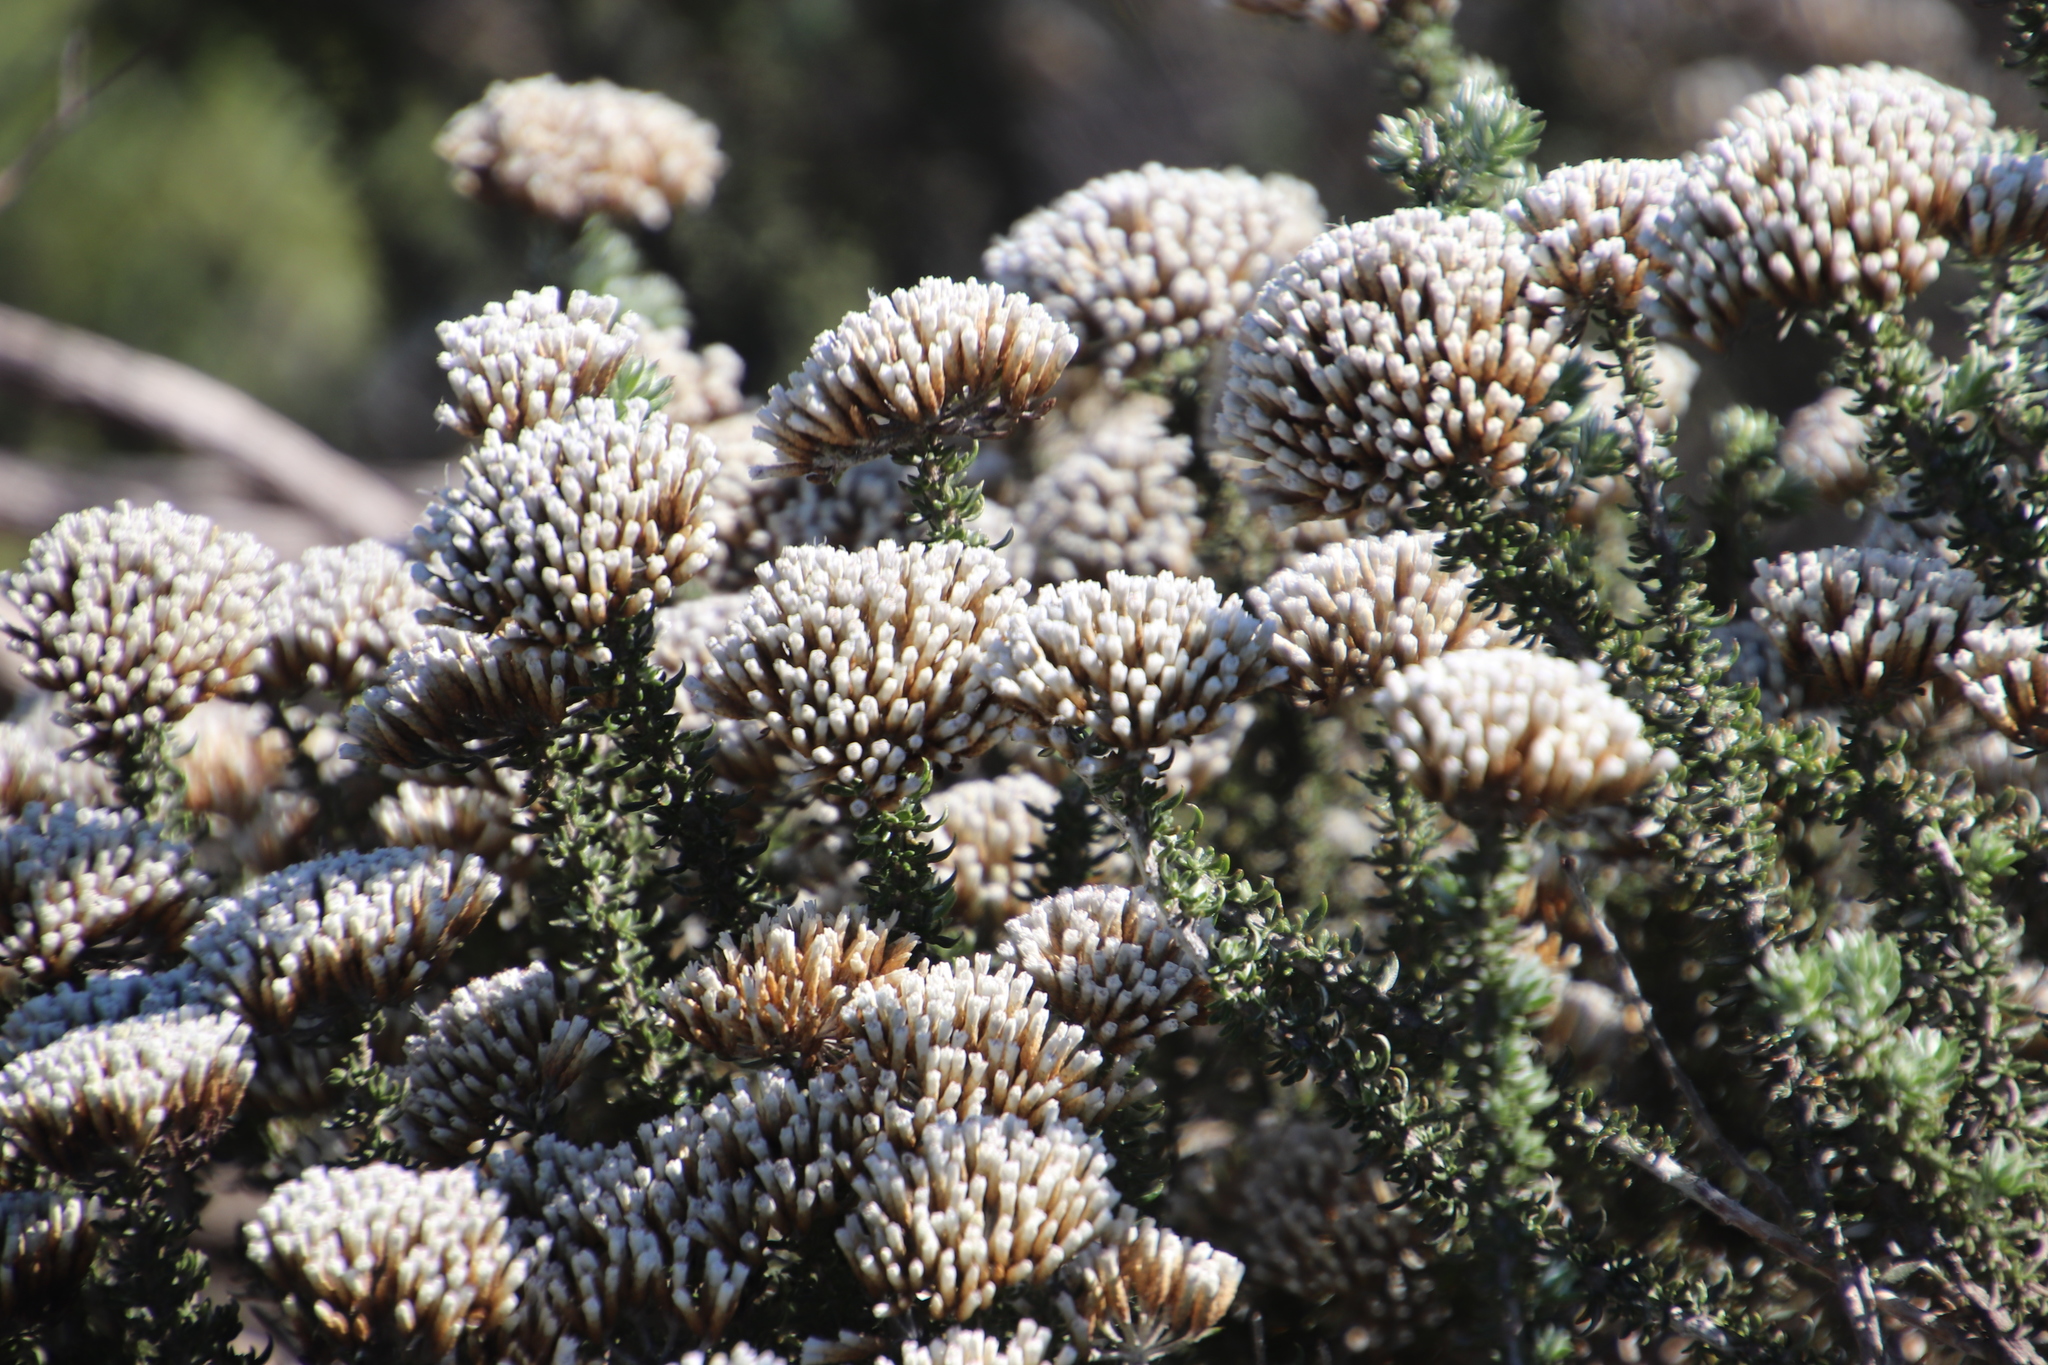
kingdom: Plantae
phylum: Tracheophyta
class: Magnoliopsida
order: Asterales
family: Asteraceae
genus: Metalasia
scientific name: Metalasia muricata
